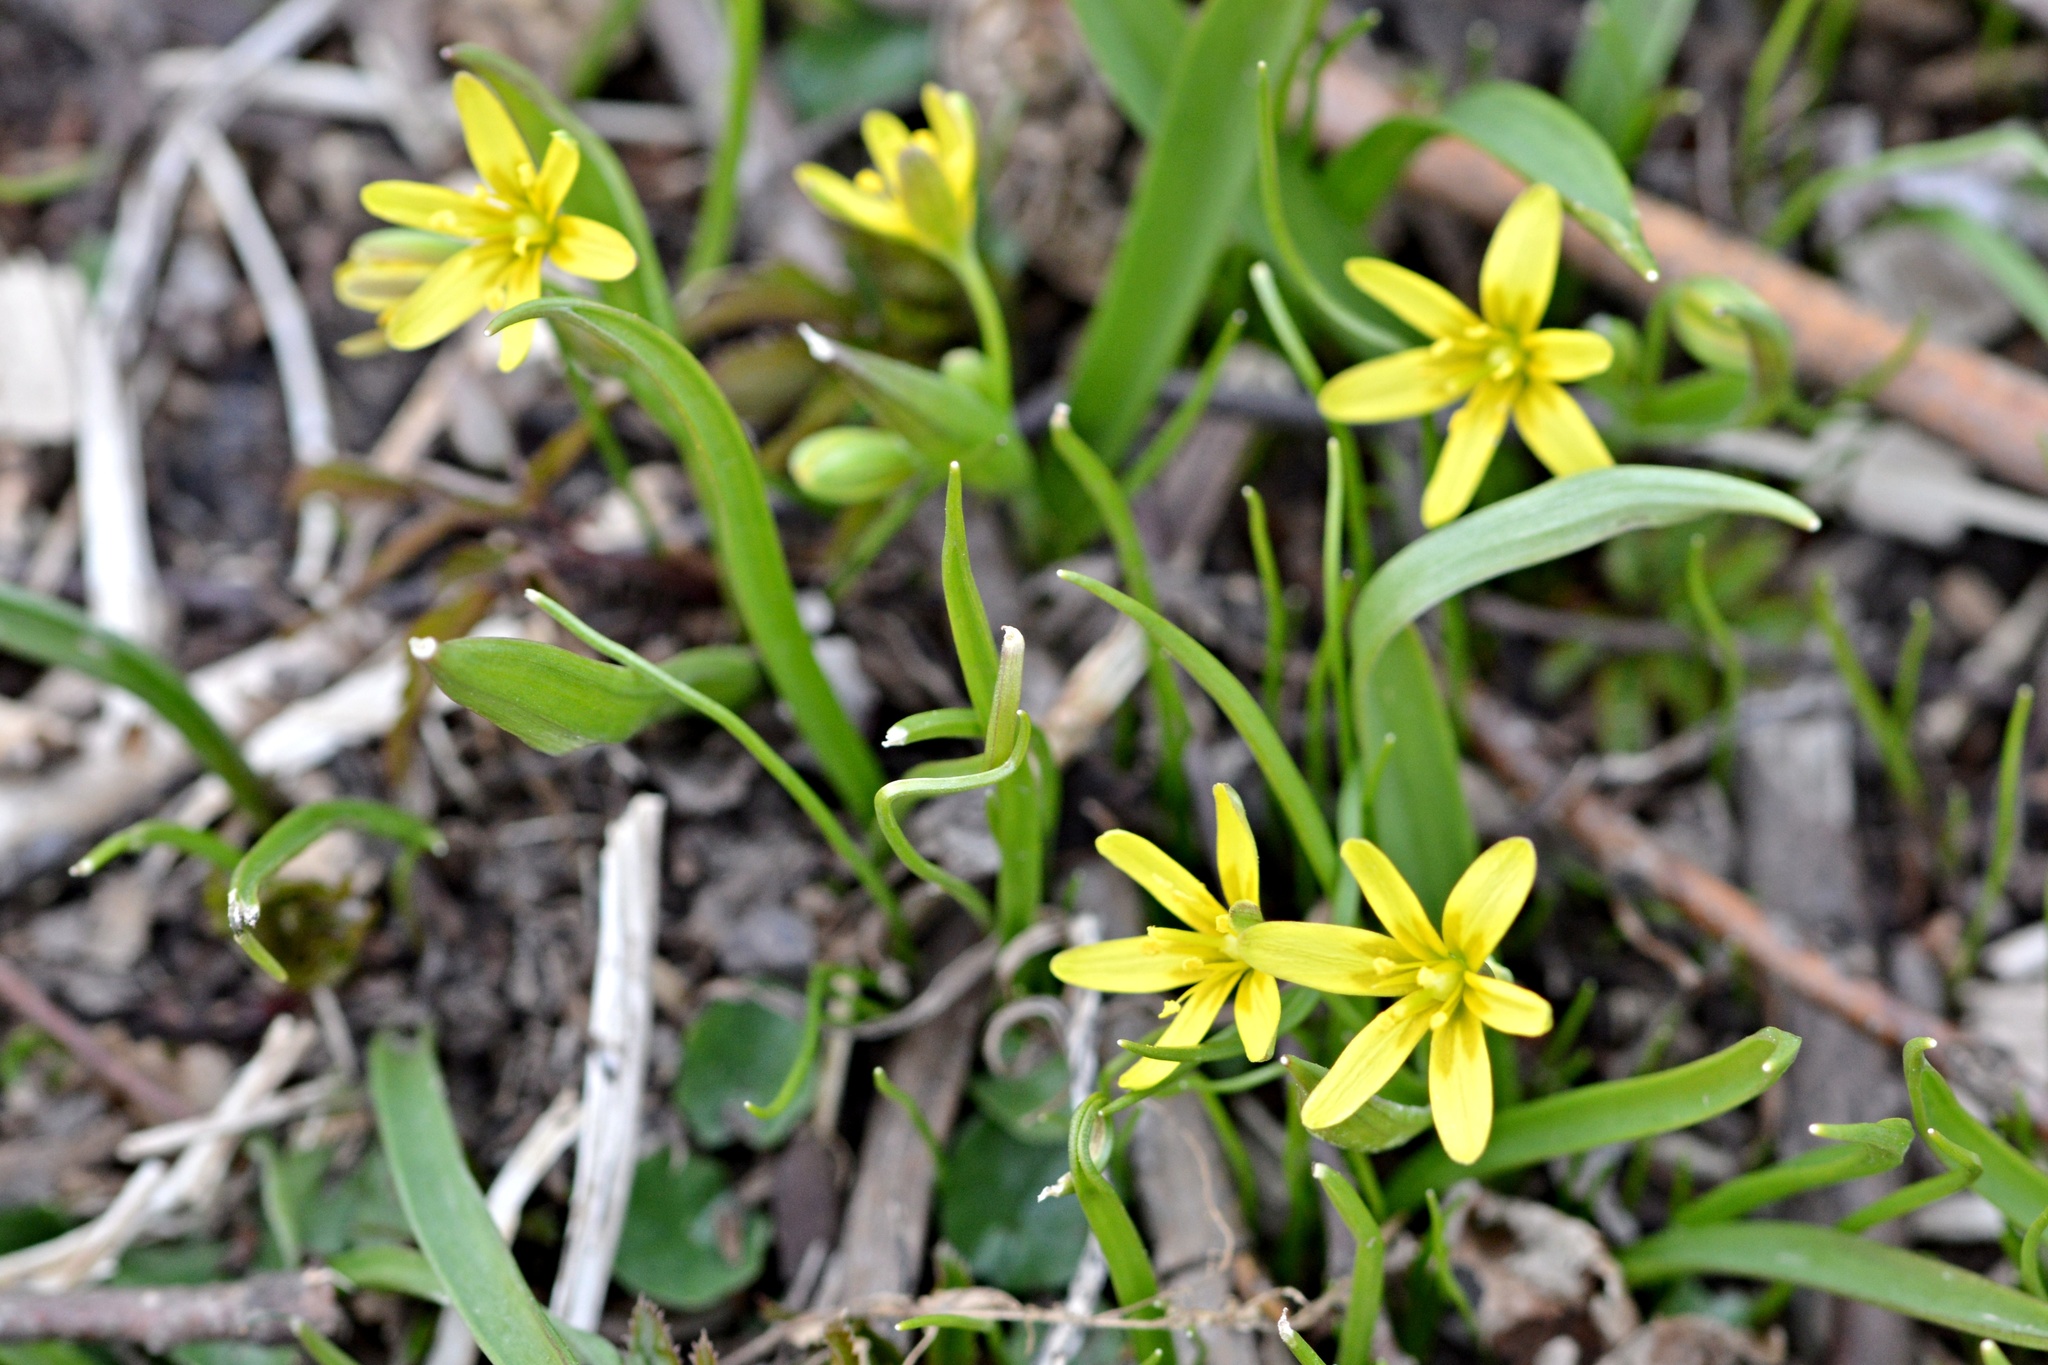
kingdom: Plantae
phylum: Tracheophyta
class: Liliopsida
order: Liliales
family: Liliaceae
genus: Gagea
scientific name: Gagea lutea
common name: Yellow star-of-bethlehem
